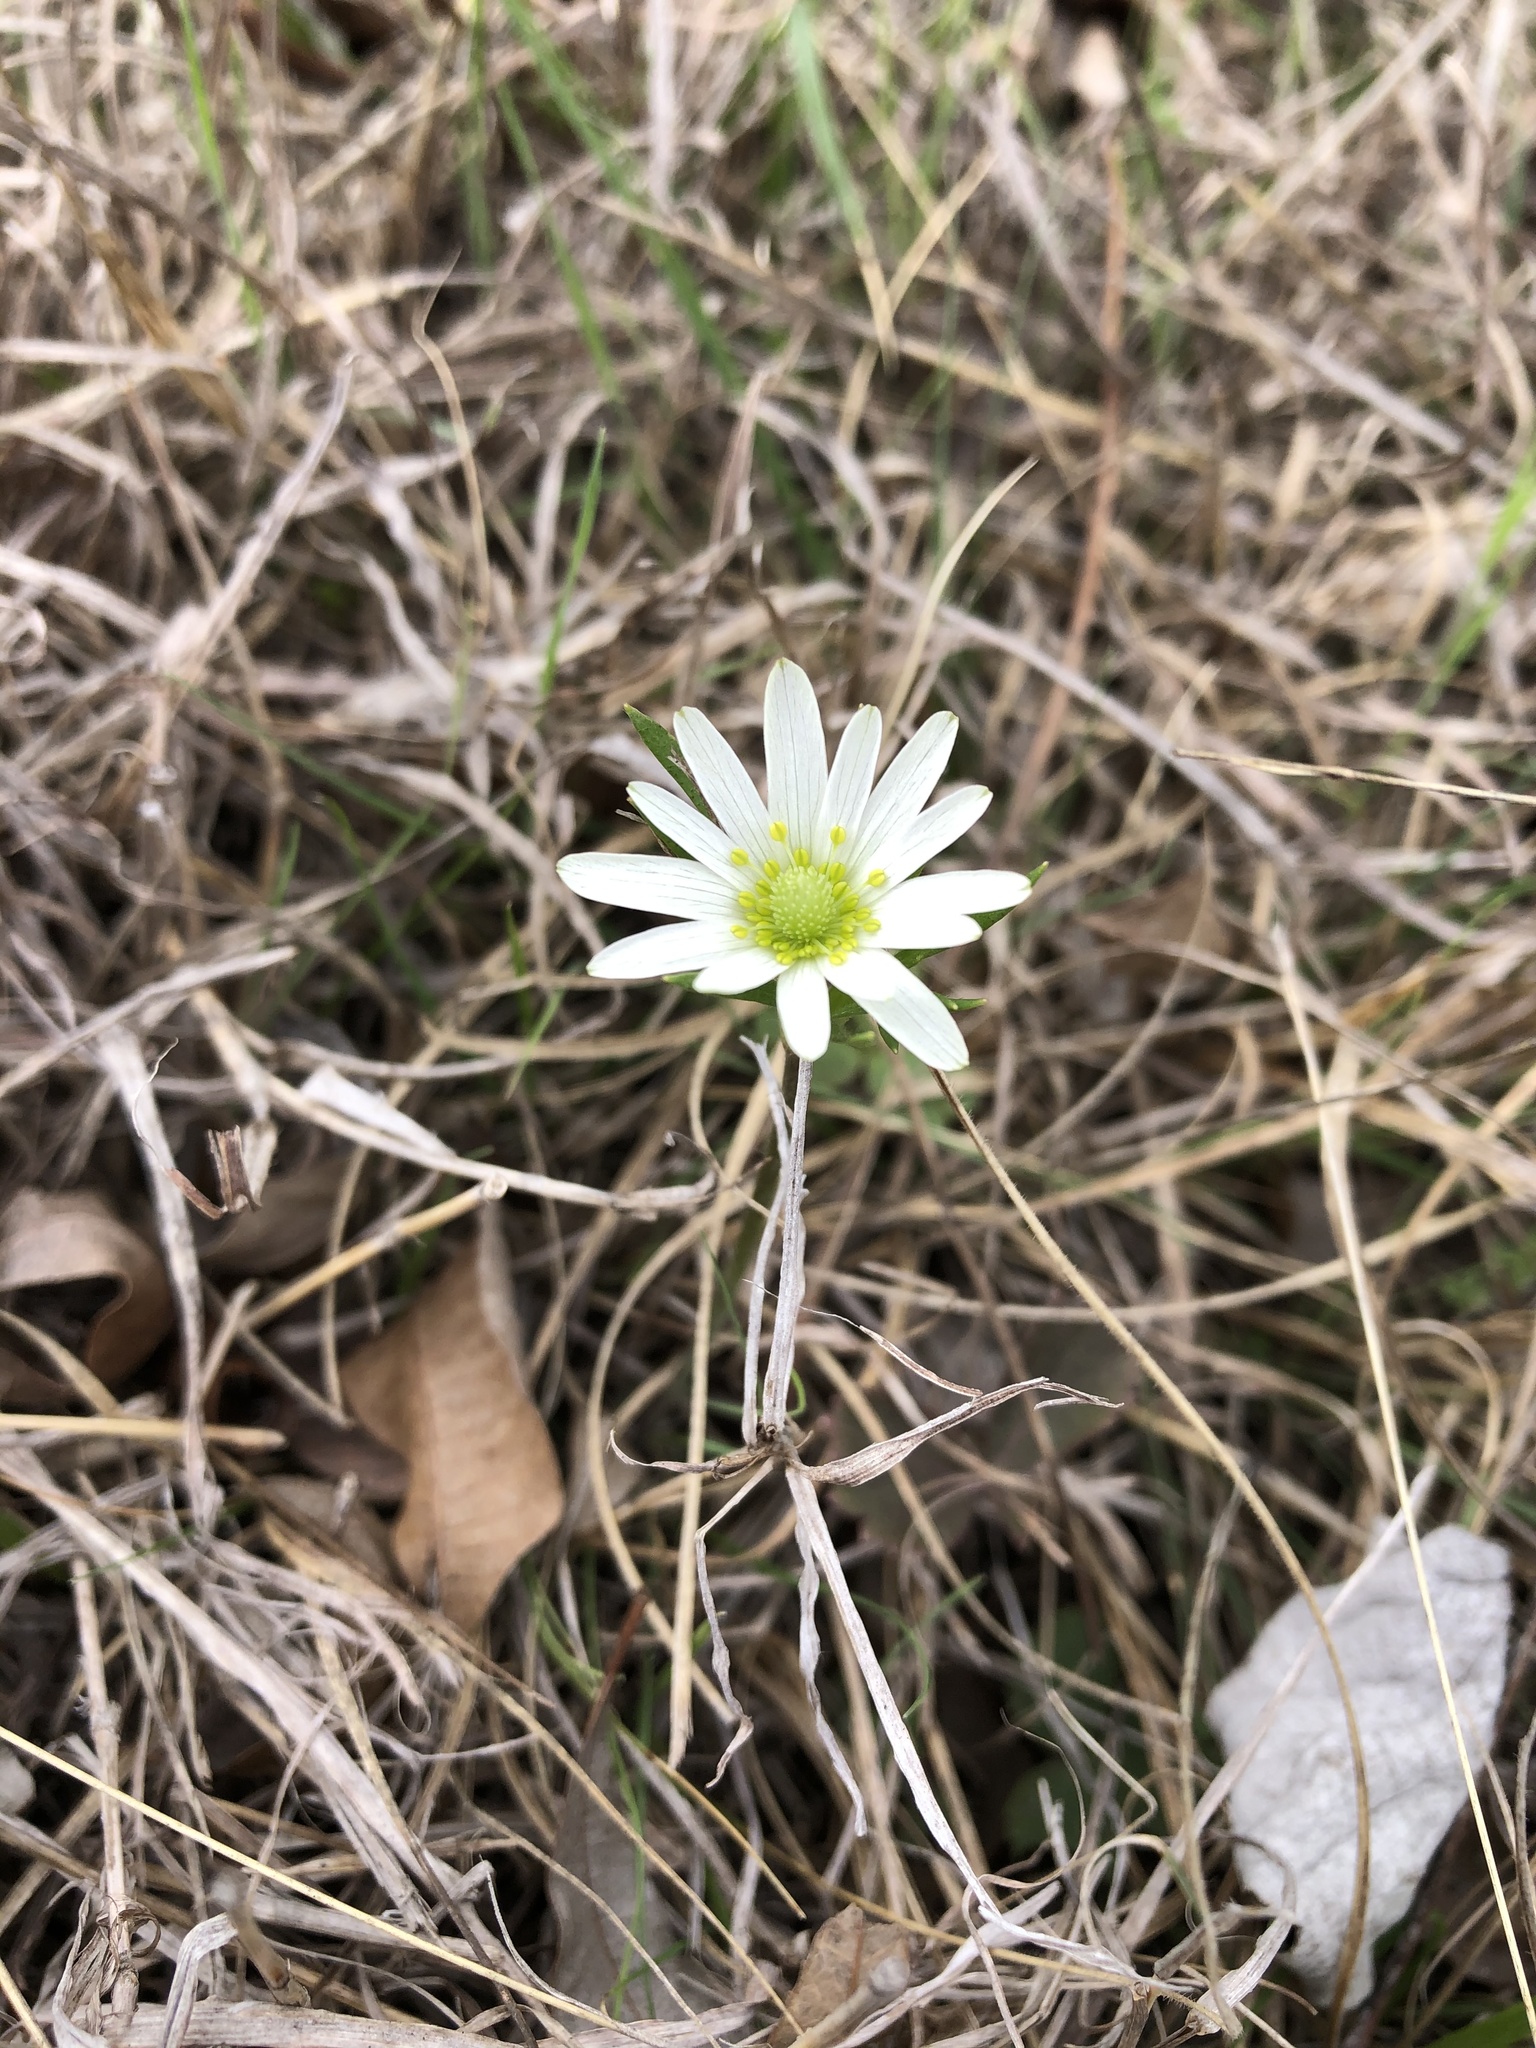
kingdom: Plantae
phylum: Tracheophyta
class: Magnoliopsida
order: Ranunculales
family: Ranunculaceae
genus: Anemone
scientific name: Anemone berlandieri
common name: Ten-petal anemone
